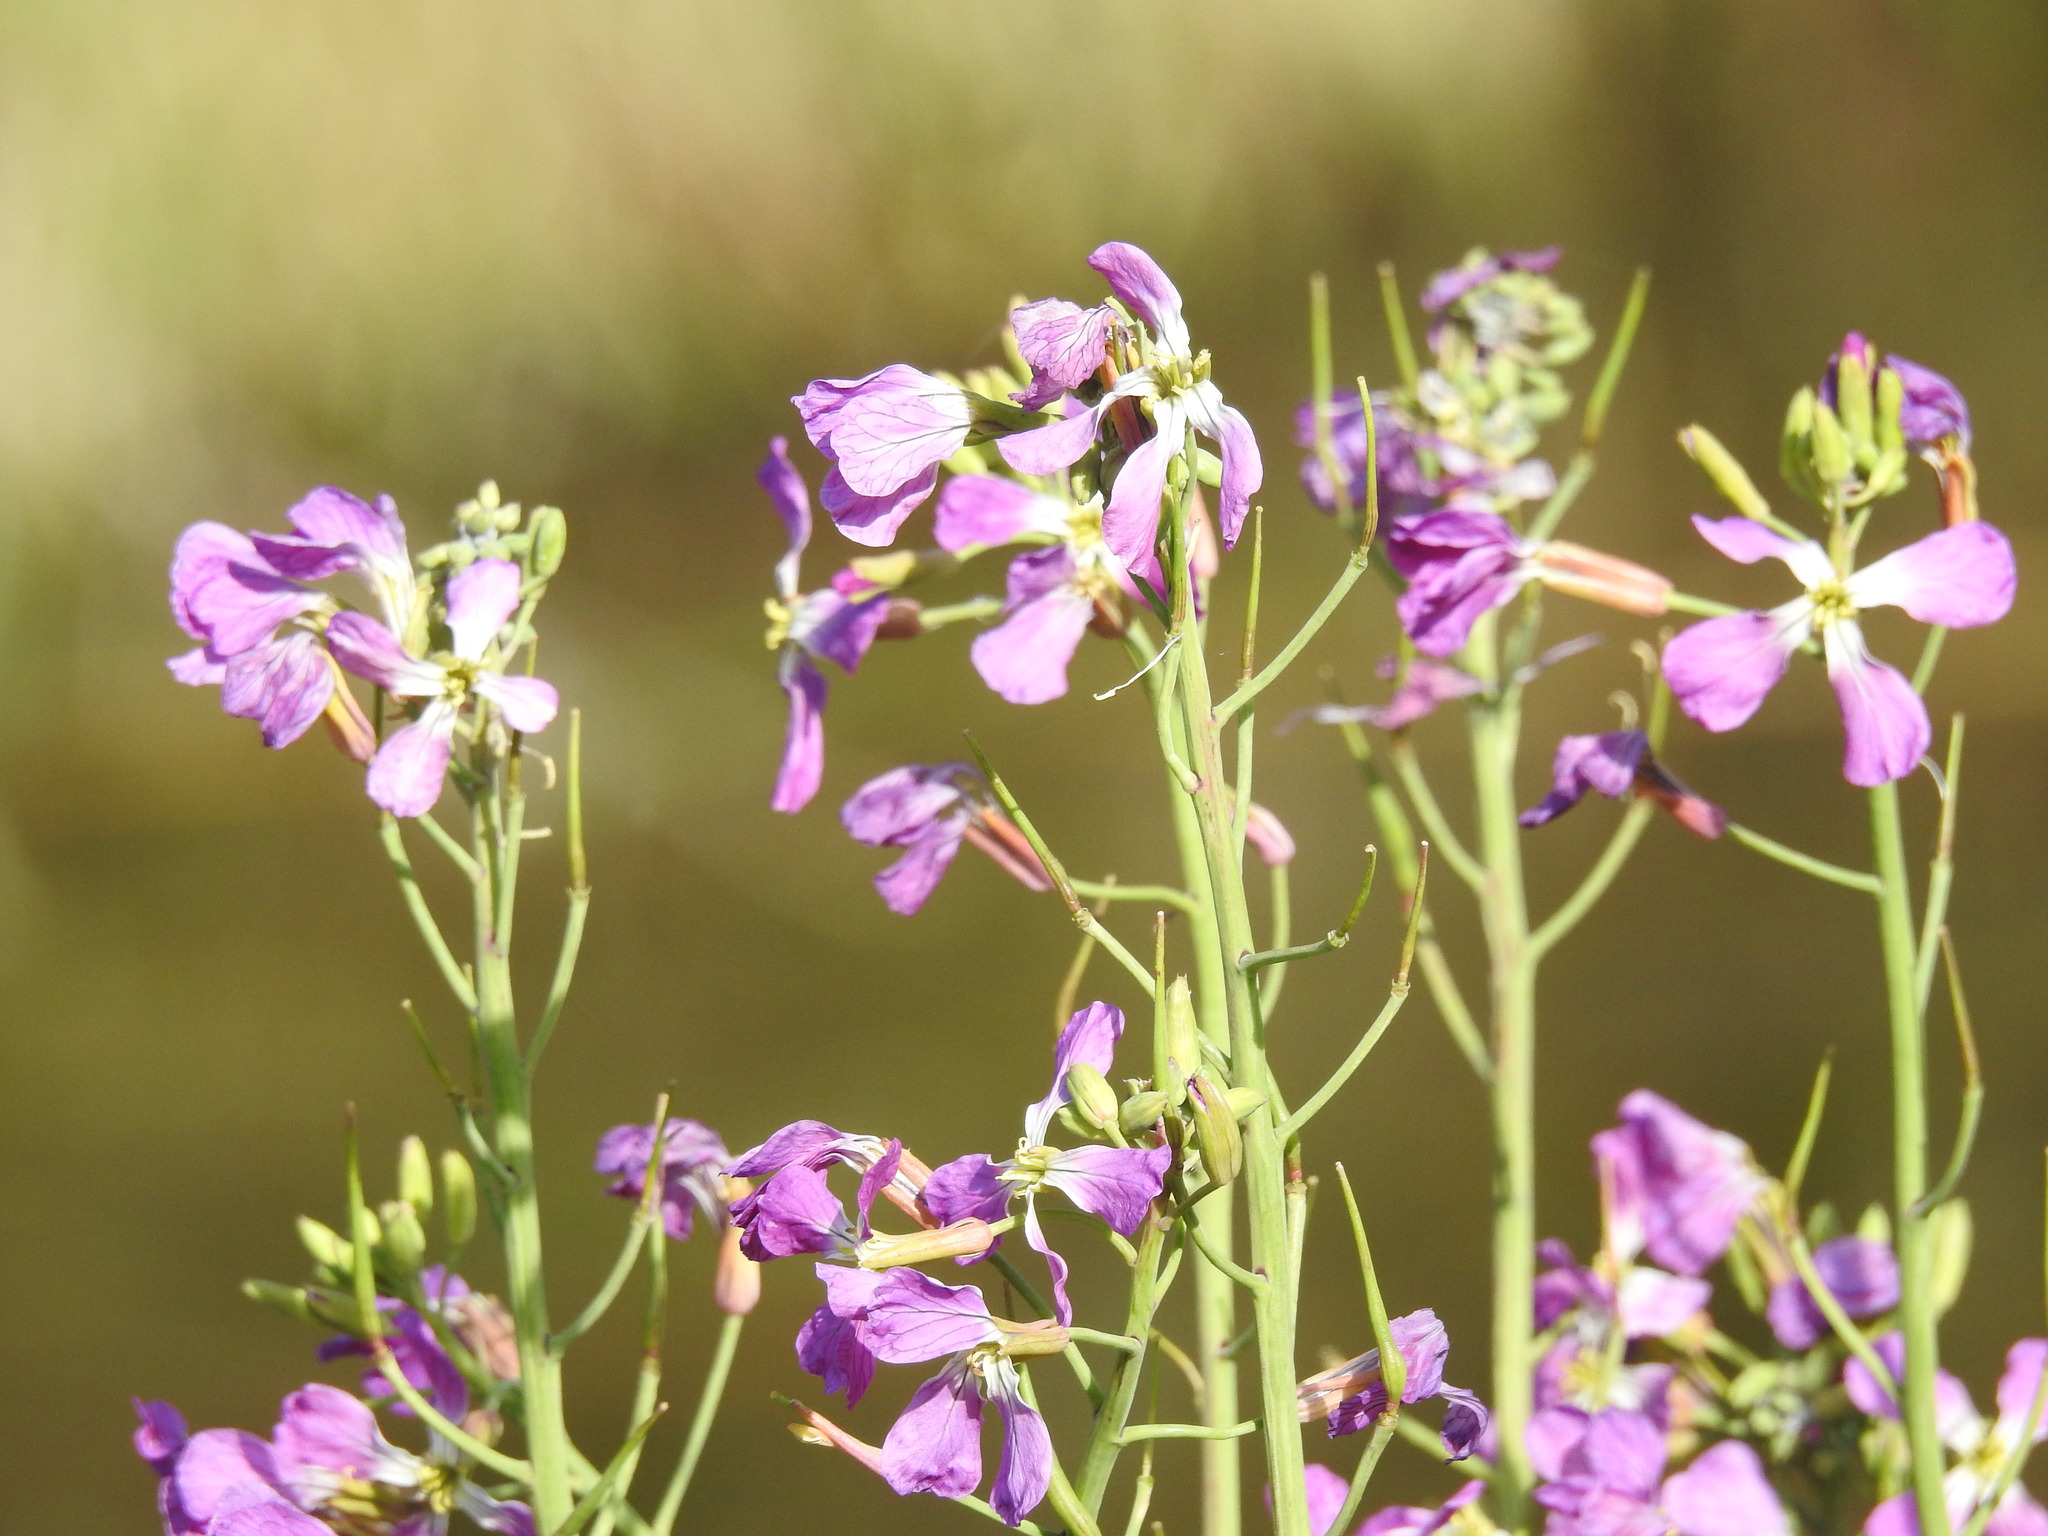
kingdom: Plantae
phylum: Tracheophyta
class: Magnoliopsida
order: Brassicales
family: Brassicaceae
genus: Raphanus
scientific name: Raphanus sativus
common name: Cultivated radish
